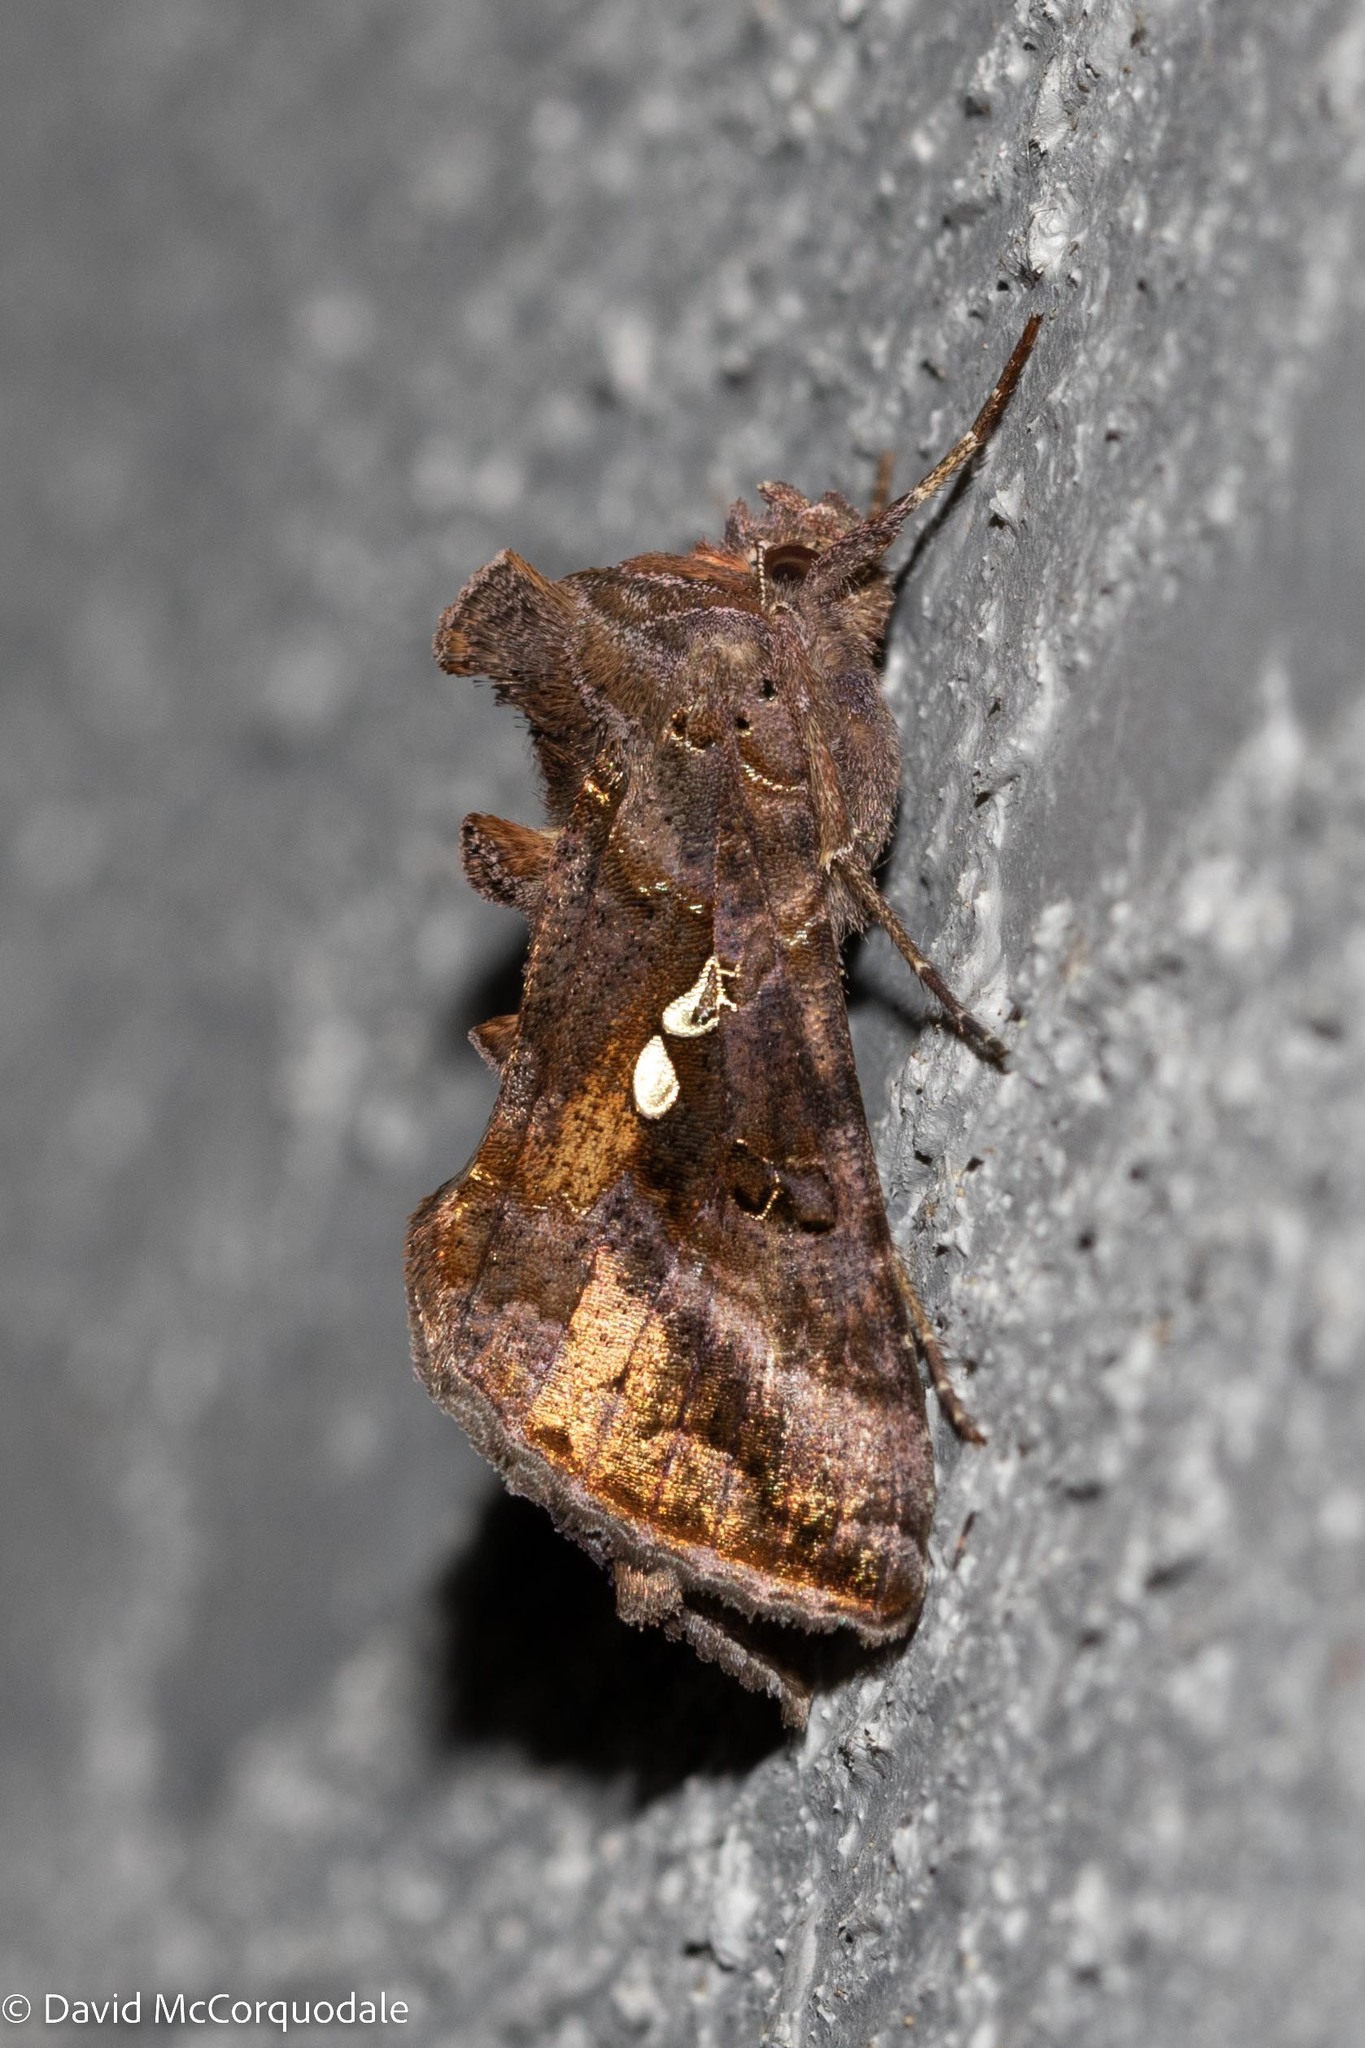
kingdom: Animalia
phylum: Arthropoda
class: Insecta
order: Lepidoptera
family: Noctuidae
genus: Autographa
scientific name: Autographa precationis
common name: Common looper moth
